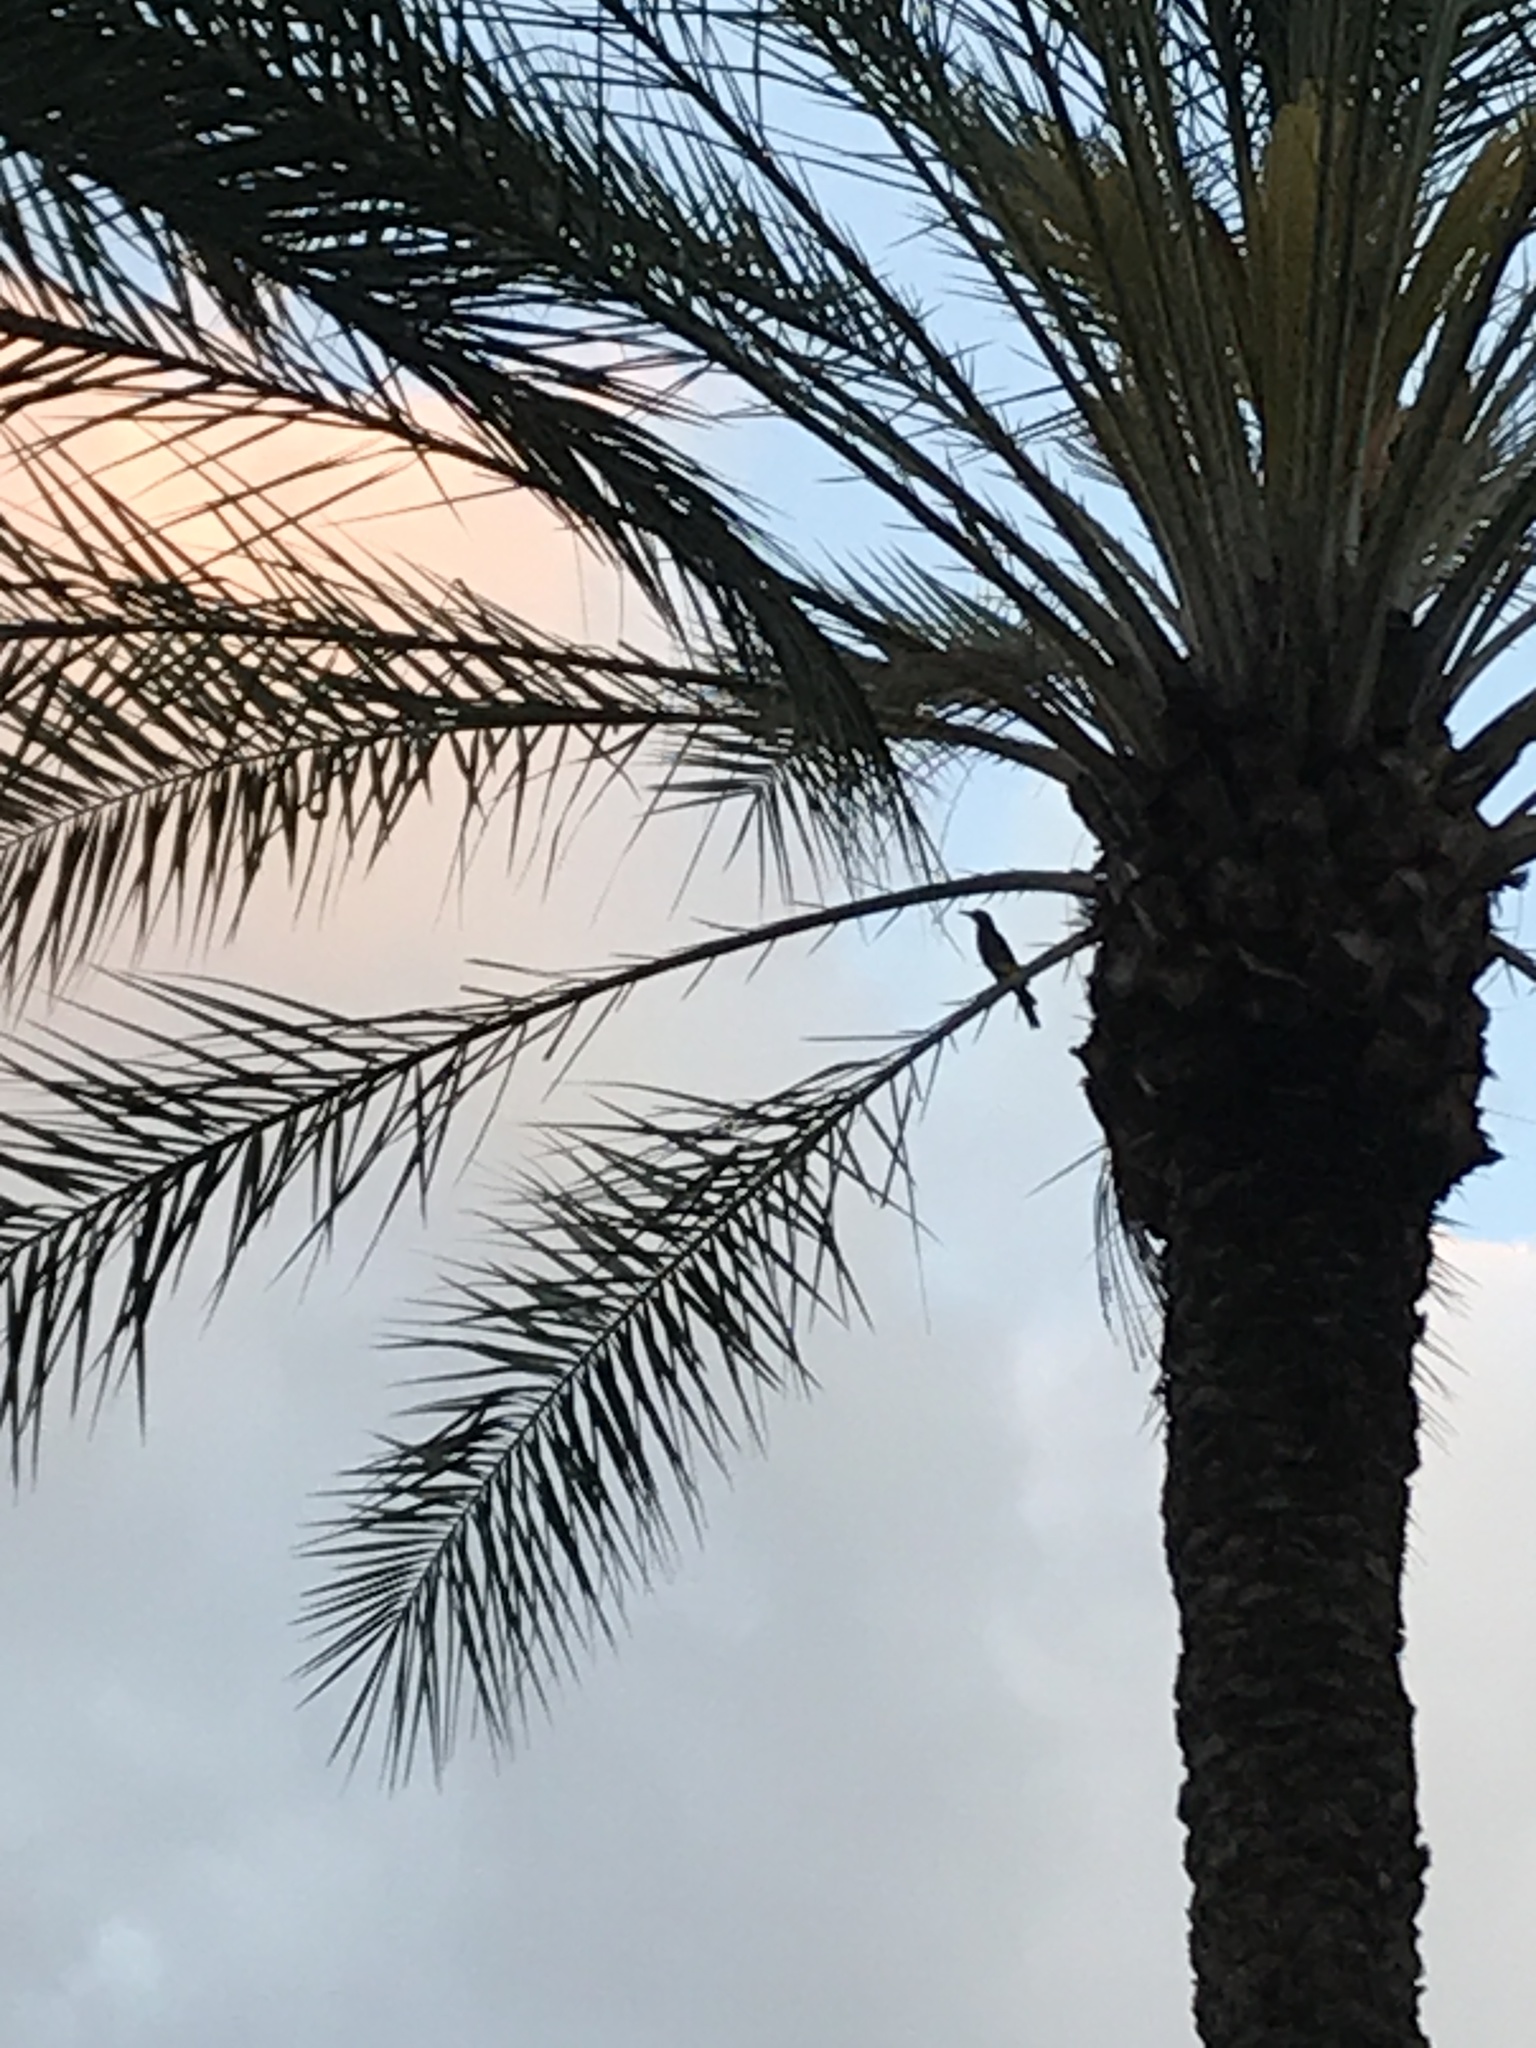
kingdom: Animalia
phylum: Chordata
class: Aves
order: Passeriformes
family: Icteridae
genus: Quiscalus
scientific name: Quiscalus major
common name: Boat-tailed grackle
